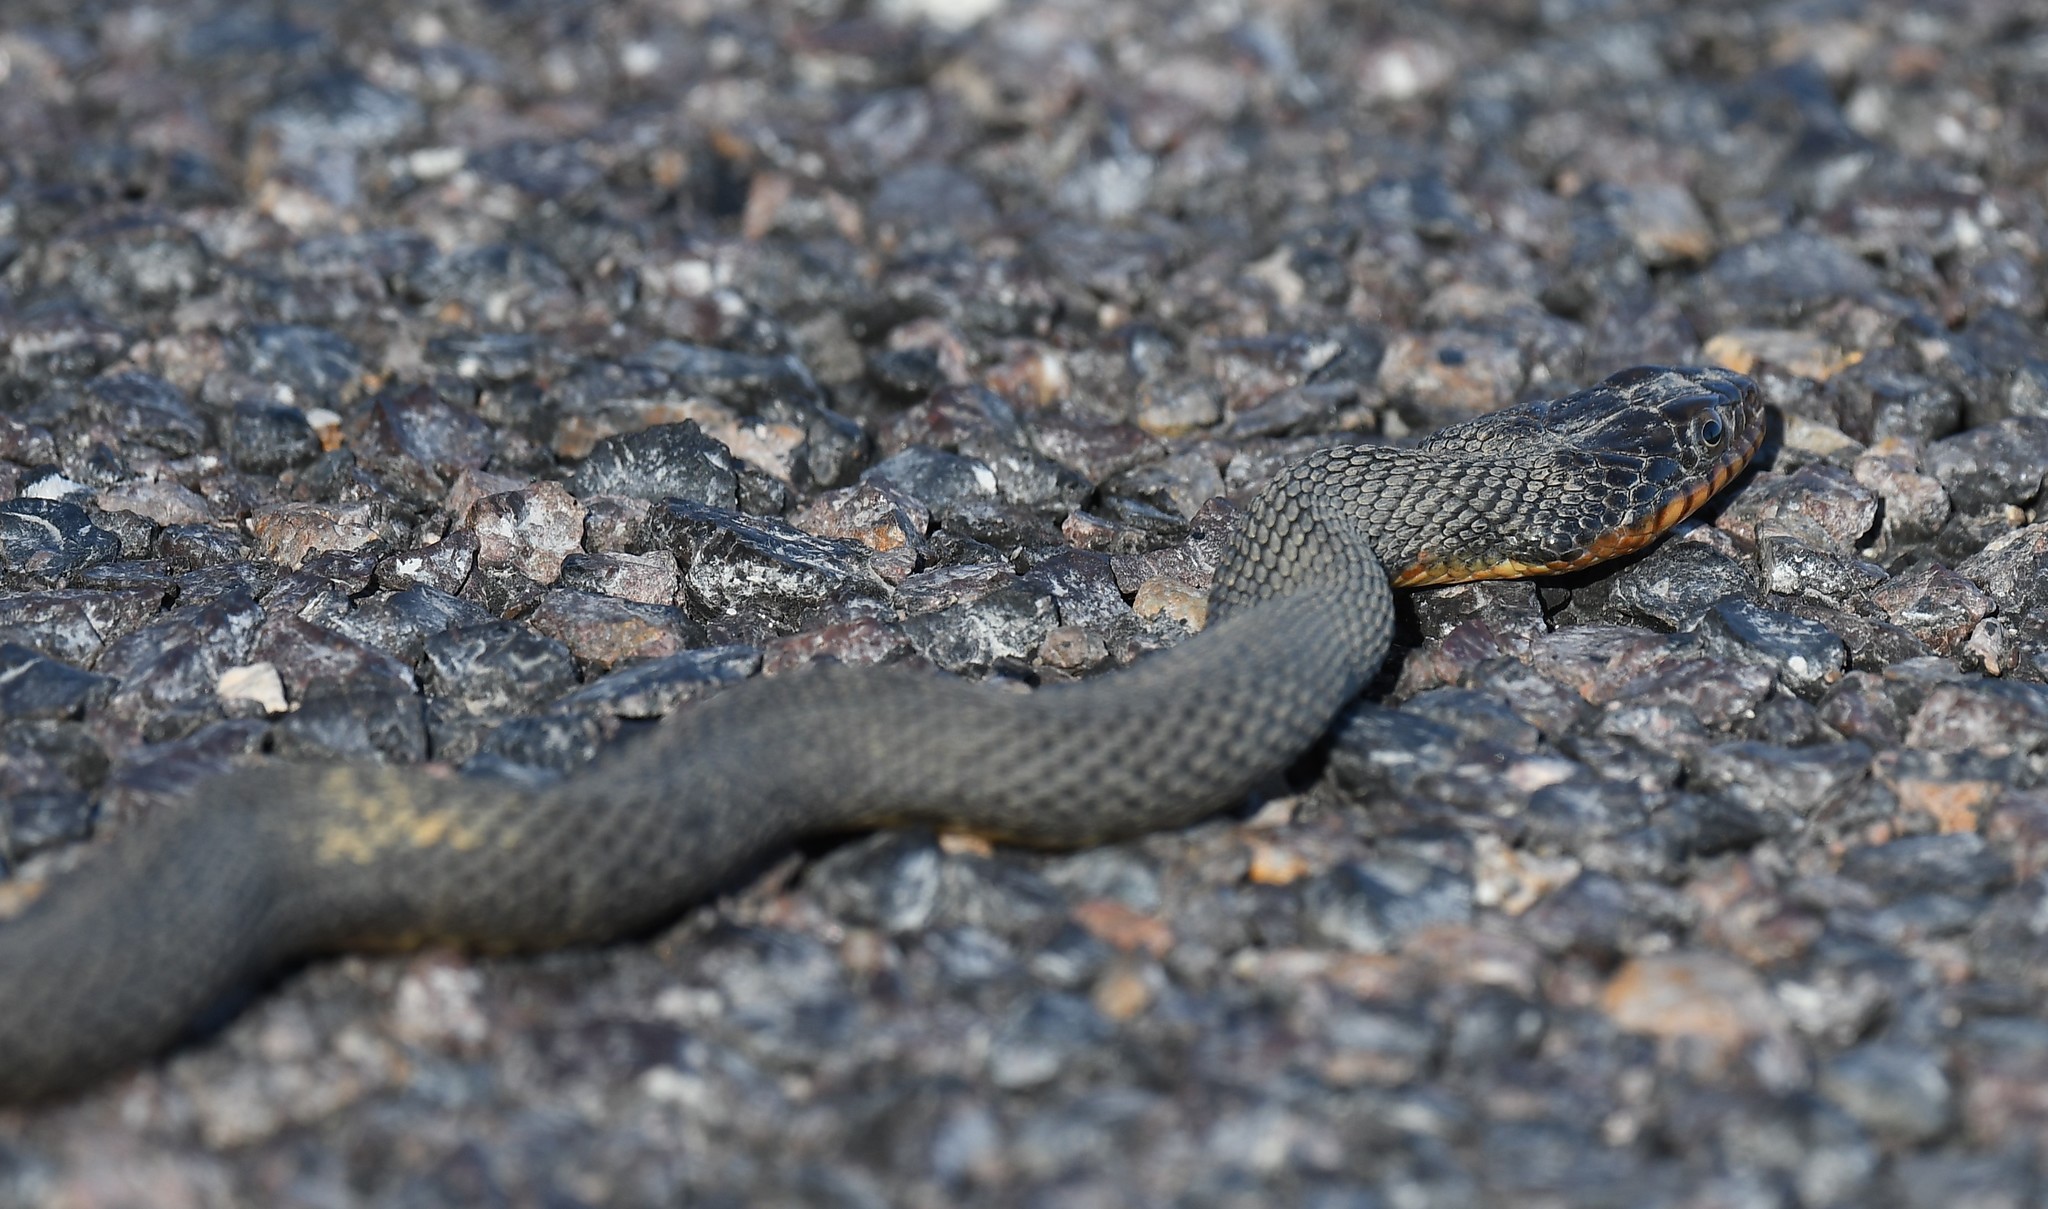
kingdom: Animalia
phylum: Chordata
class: Squamata
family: Colubridae
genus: Nerodia
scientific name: Nerodia erythrogaster
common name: Plainbelly water snake
